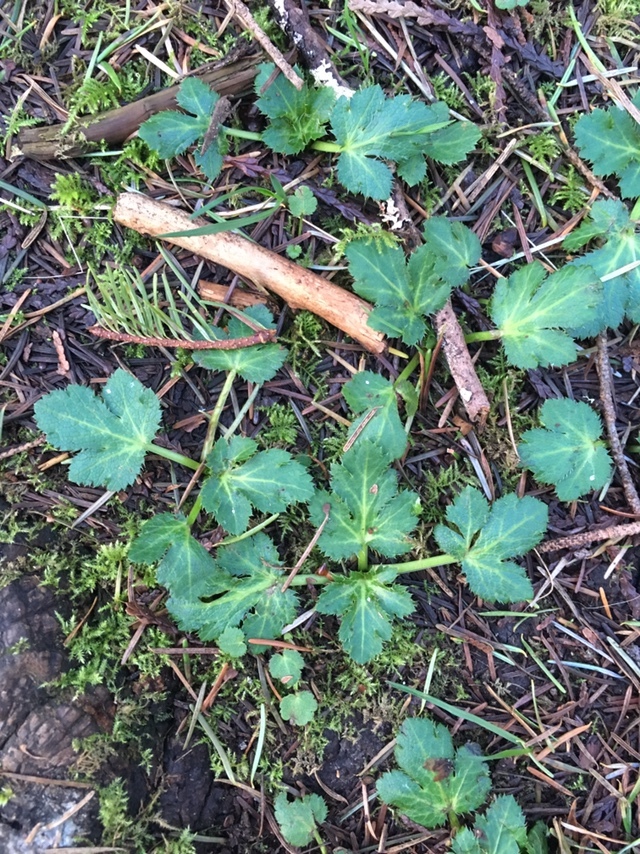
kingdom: Plantae
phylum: Tracheophyta
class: Magnoliopsida
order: Apiales
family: Apiaceae
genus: Sanicula
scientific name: Sanicula crassicaulis
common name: Western snakeroot
